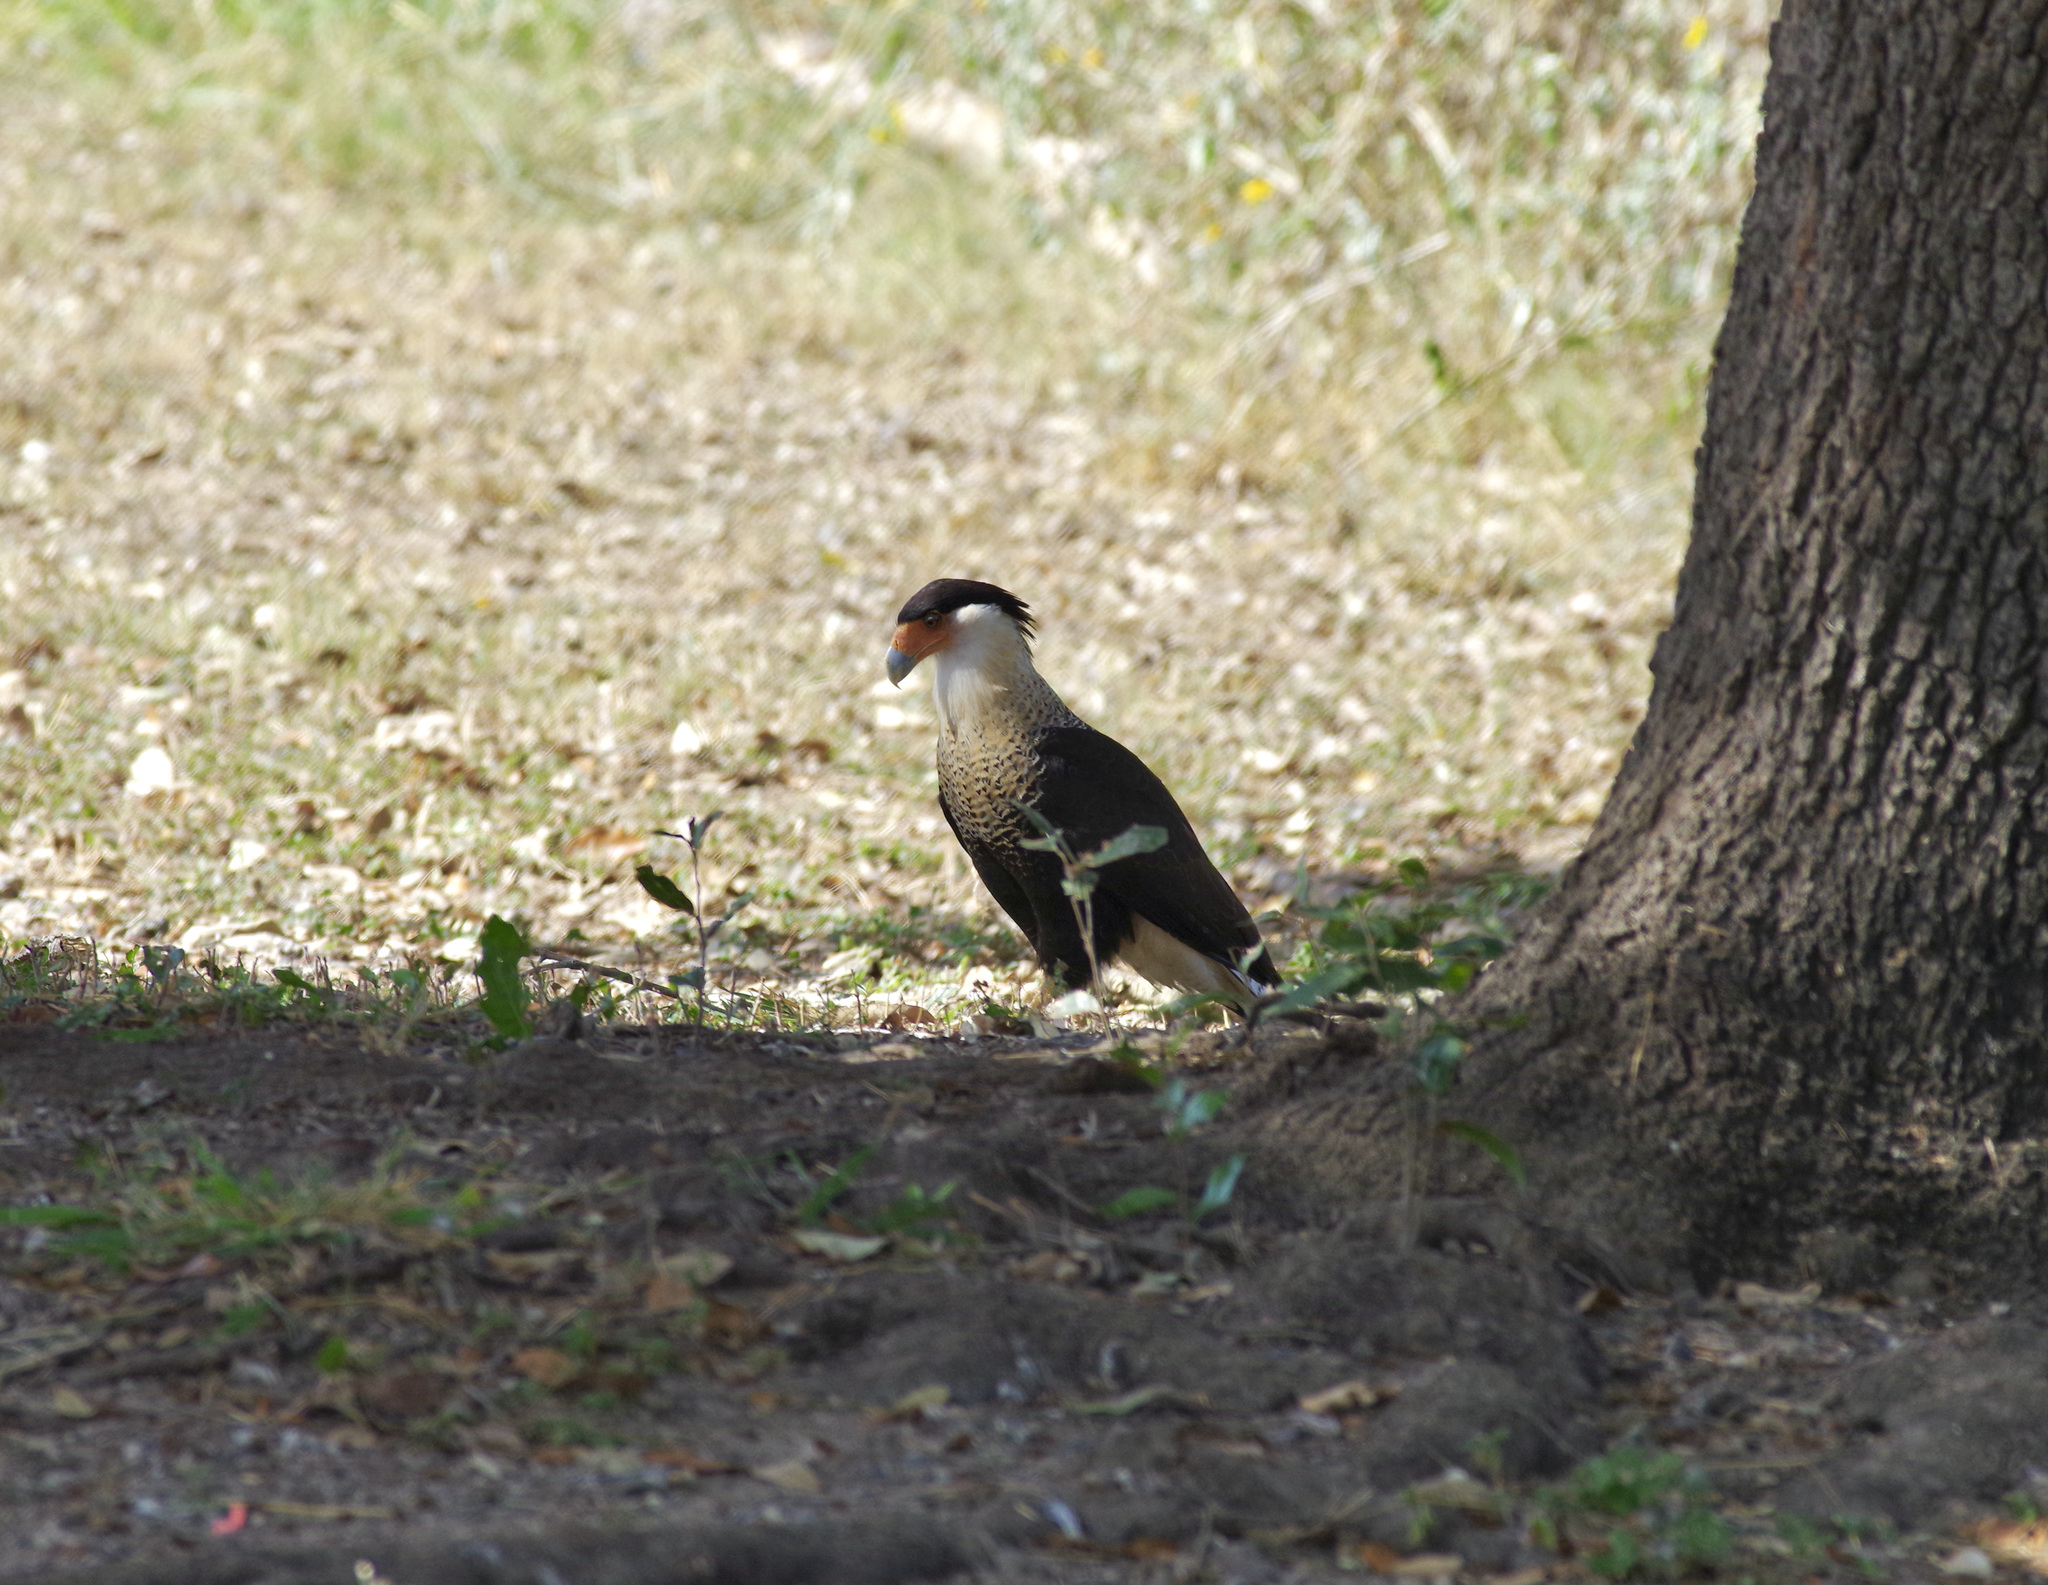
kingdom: Animalia
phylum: Chordata
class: Aves
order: Falconiformes
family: Falconidae
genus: Caracara
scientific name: Caracara plancus
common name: Southern caracara
